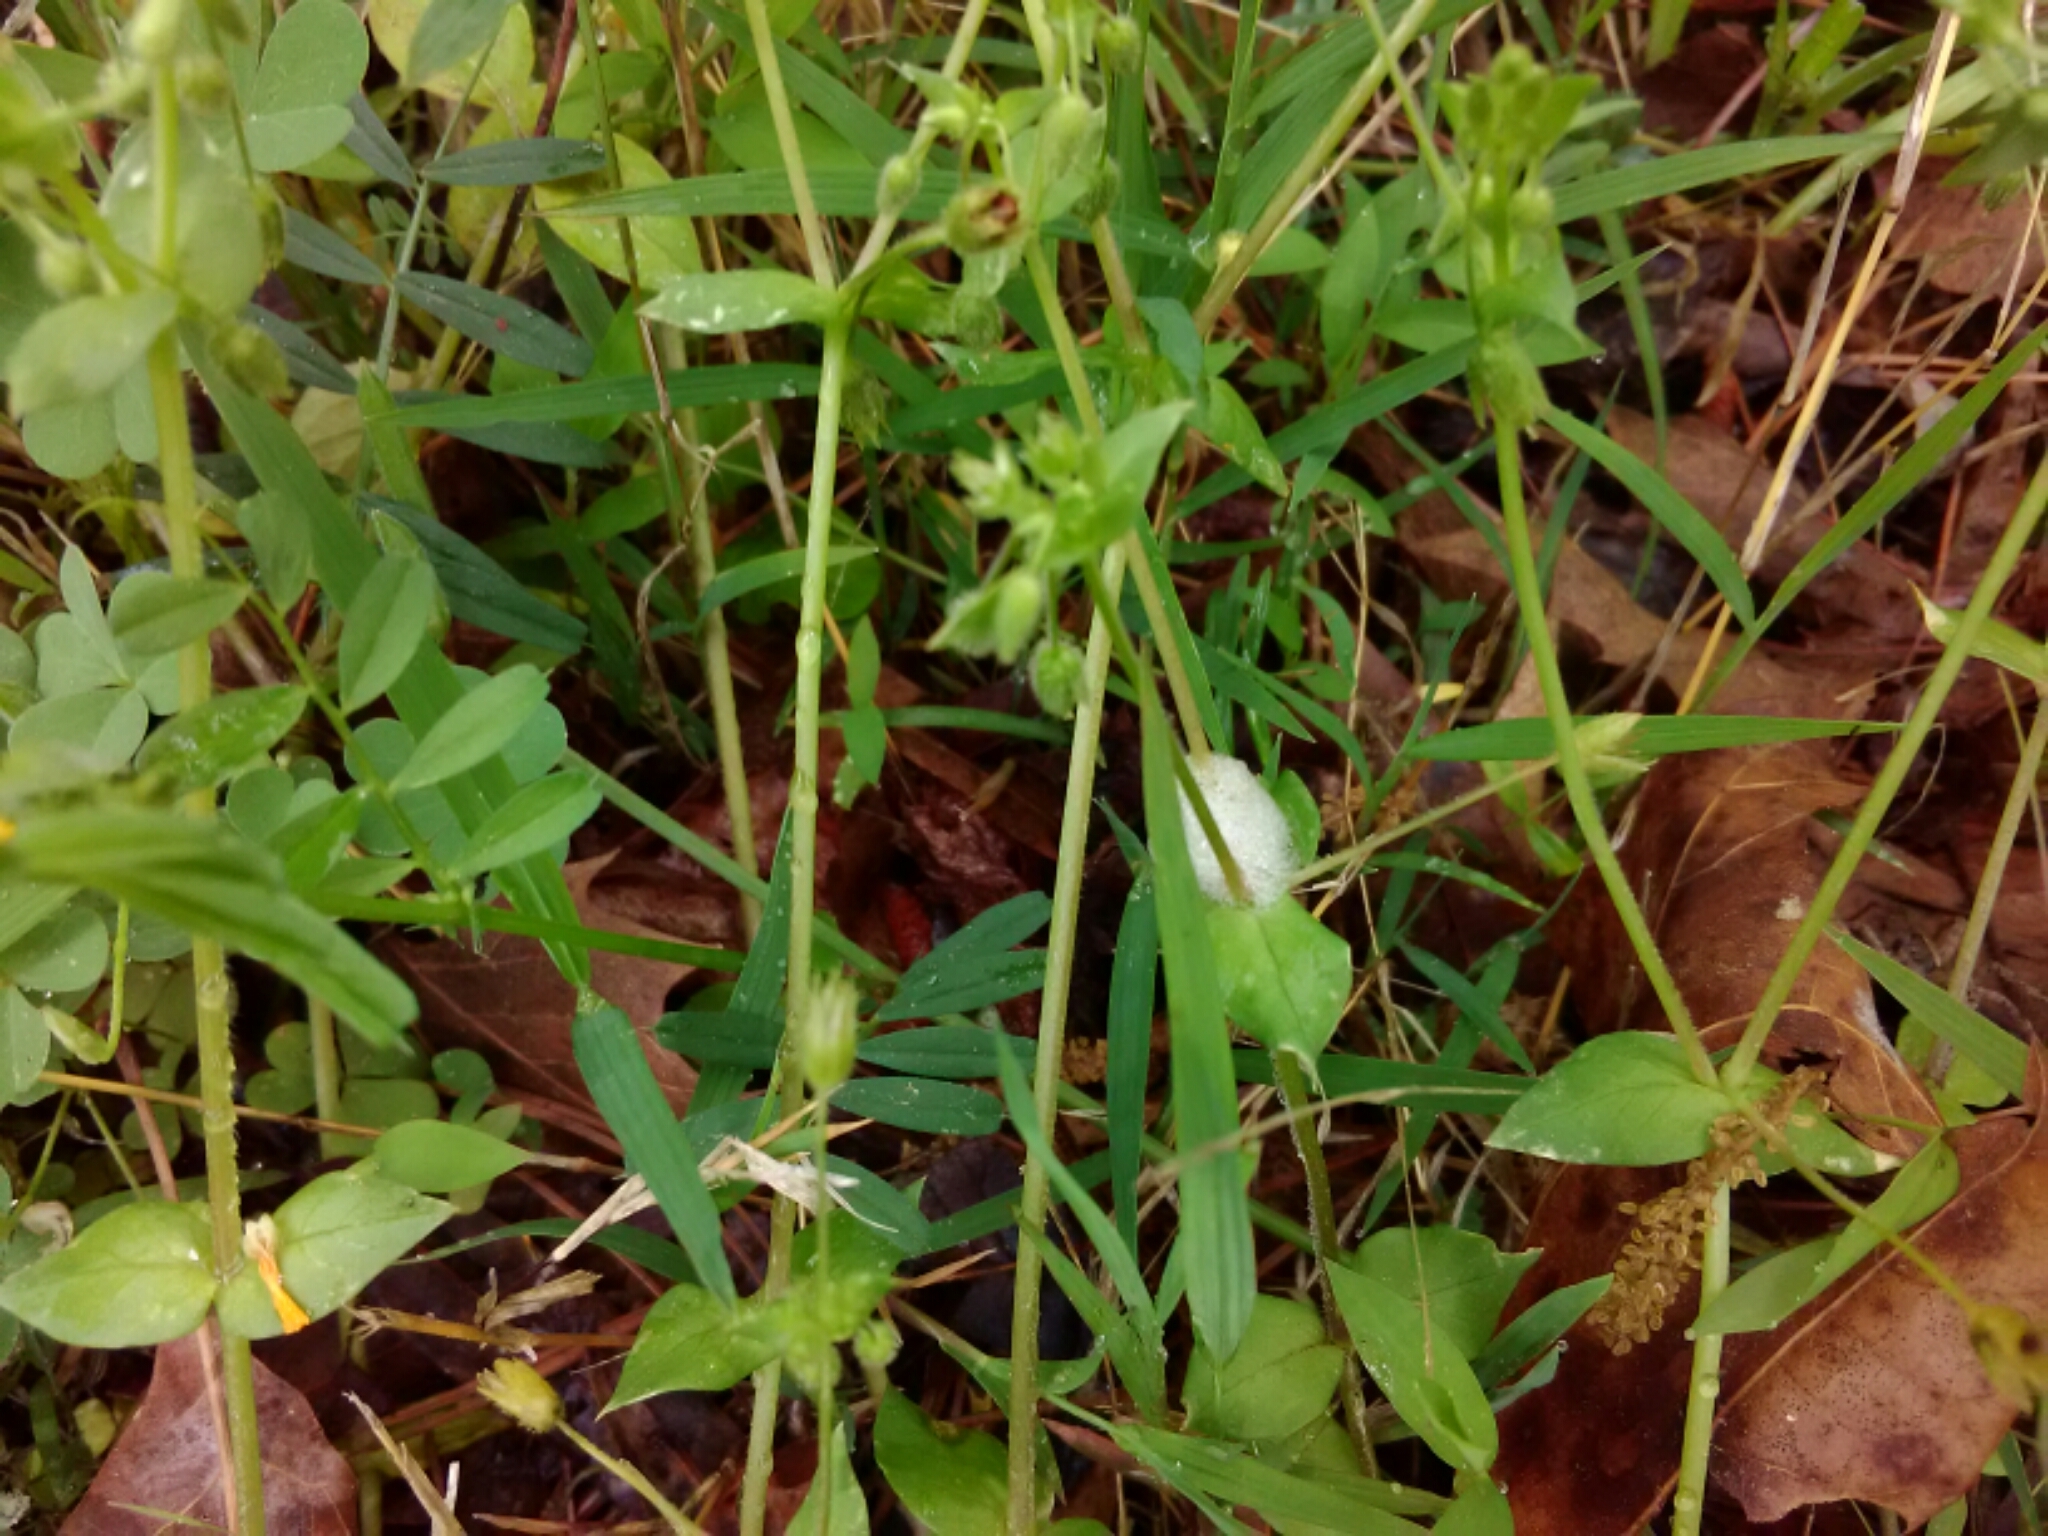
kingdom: Plantae
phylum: Tracheophyta
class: Magnoliopsida
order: Caryophyllales
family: Caryophyllaceae
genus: Stellaria
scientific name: Stellaria media
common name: Common chickweed
